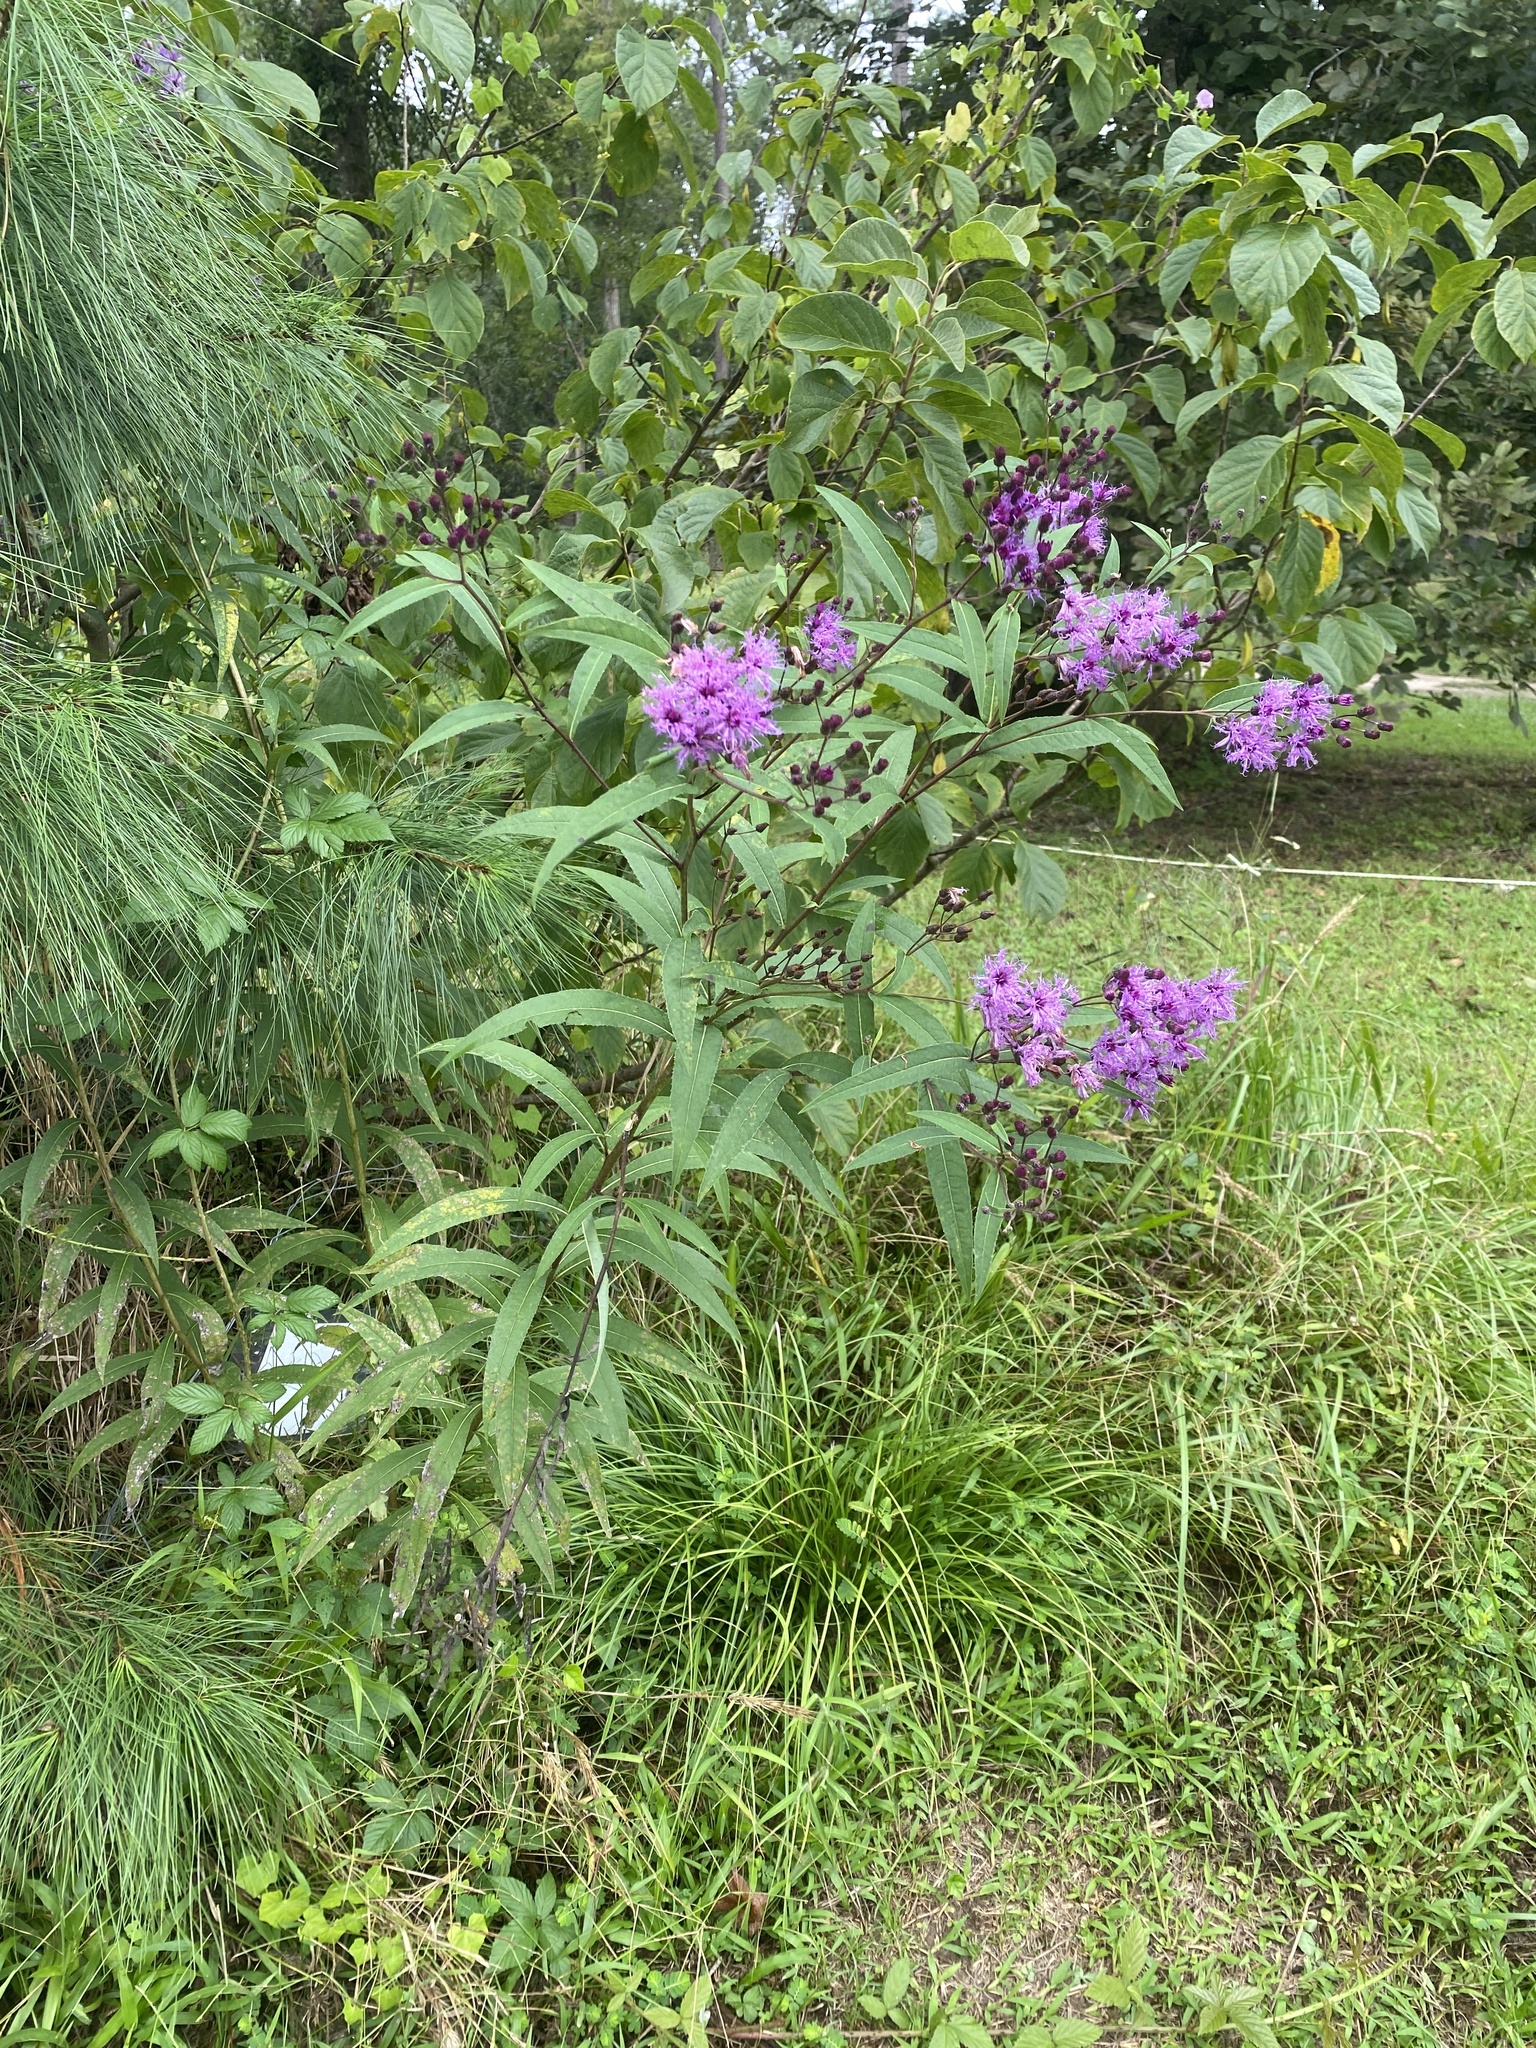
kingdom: Plantae
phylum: Tracheophyta
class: Magnoliopsida
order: Asterales
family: Asteraceae
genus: Vernonia
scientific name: Vernonia gigantea
